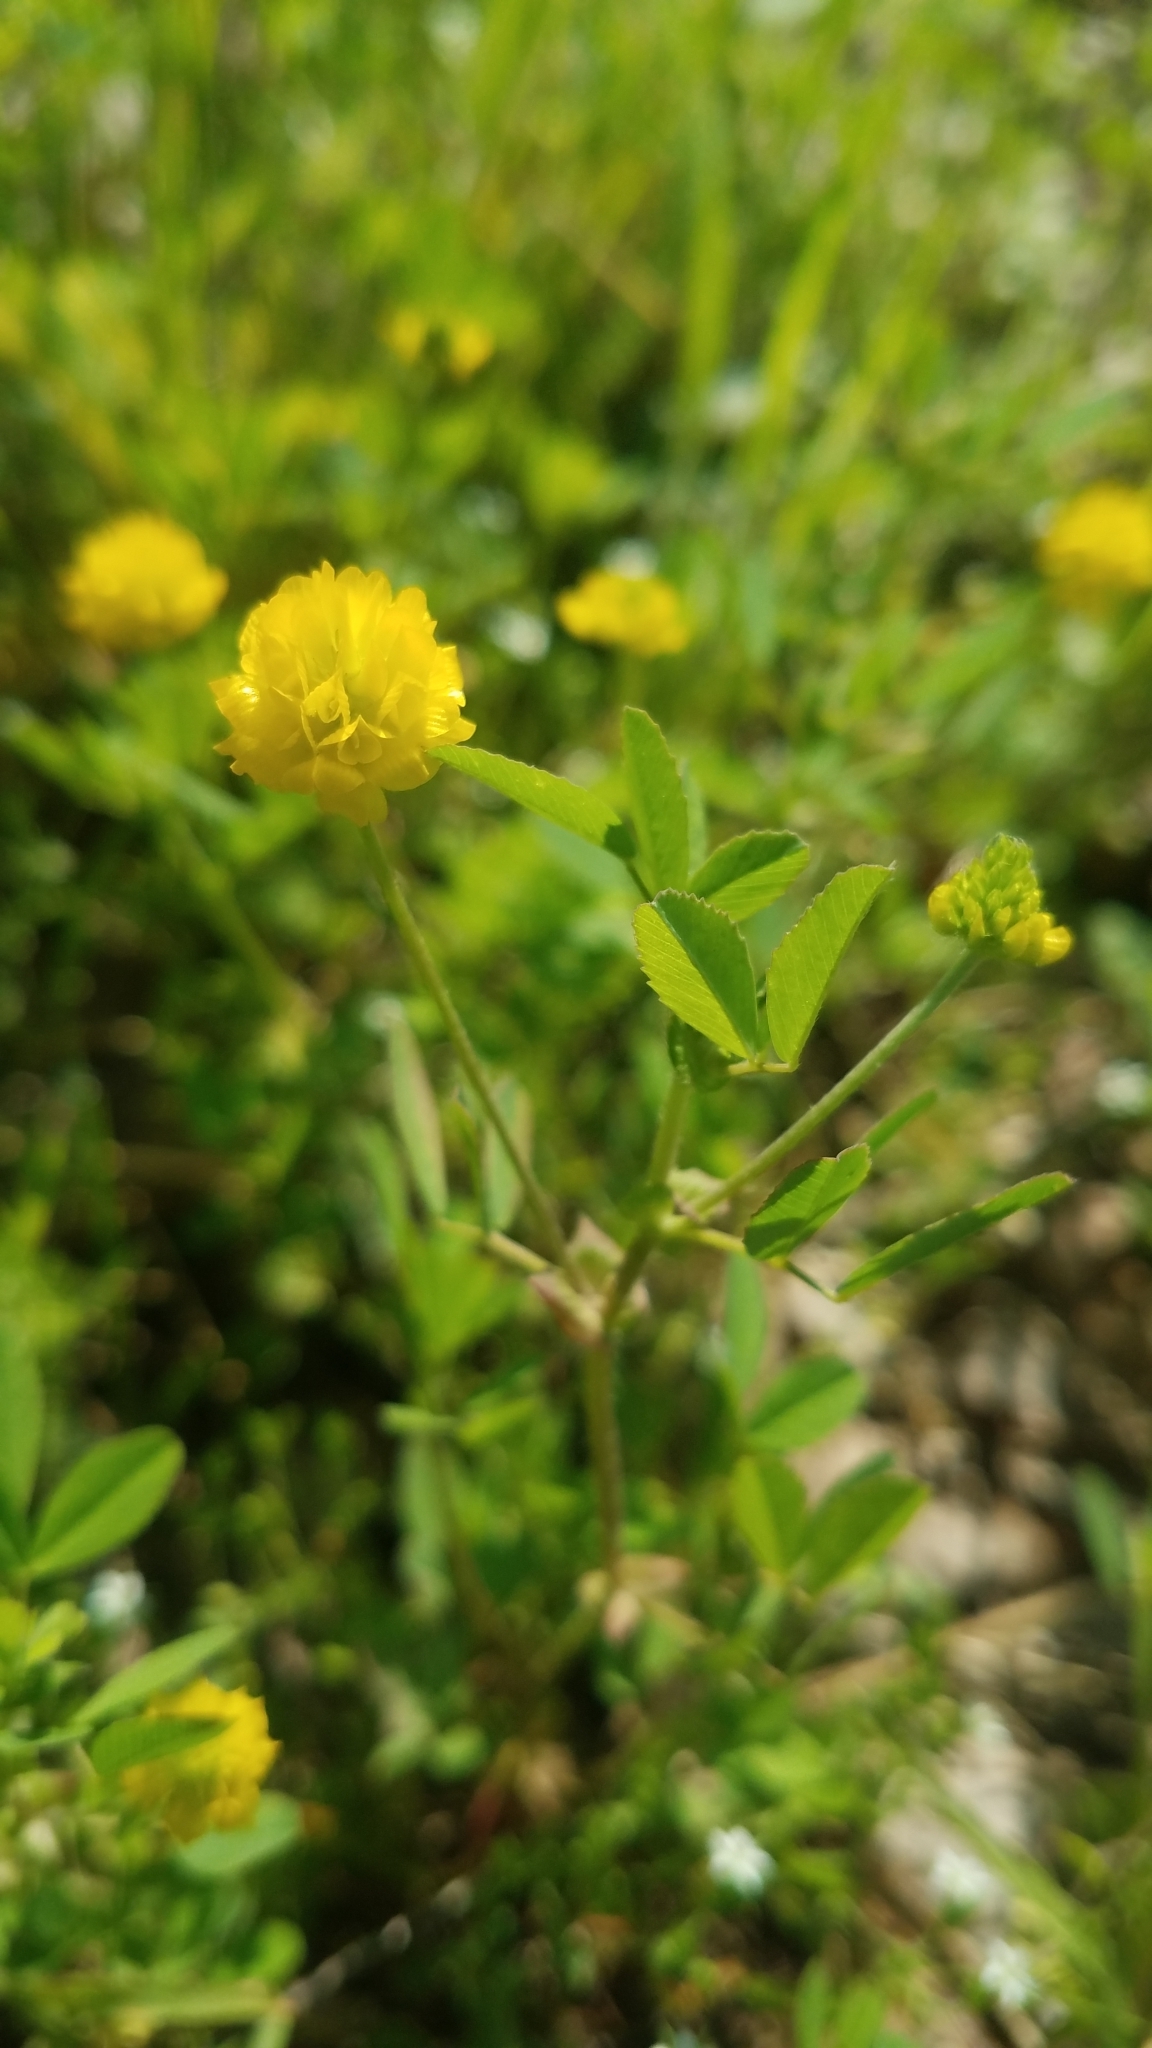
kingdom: Plantae
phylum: Tracheophyta
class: Magnoliopsida
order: Fabales
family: Fabaceae
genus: Trifolium
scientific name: Trifolium campestre
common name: Field clover
